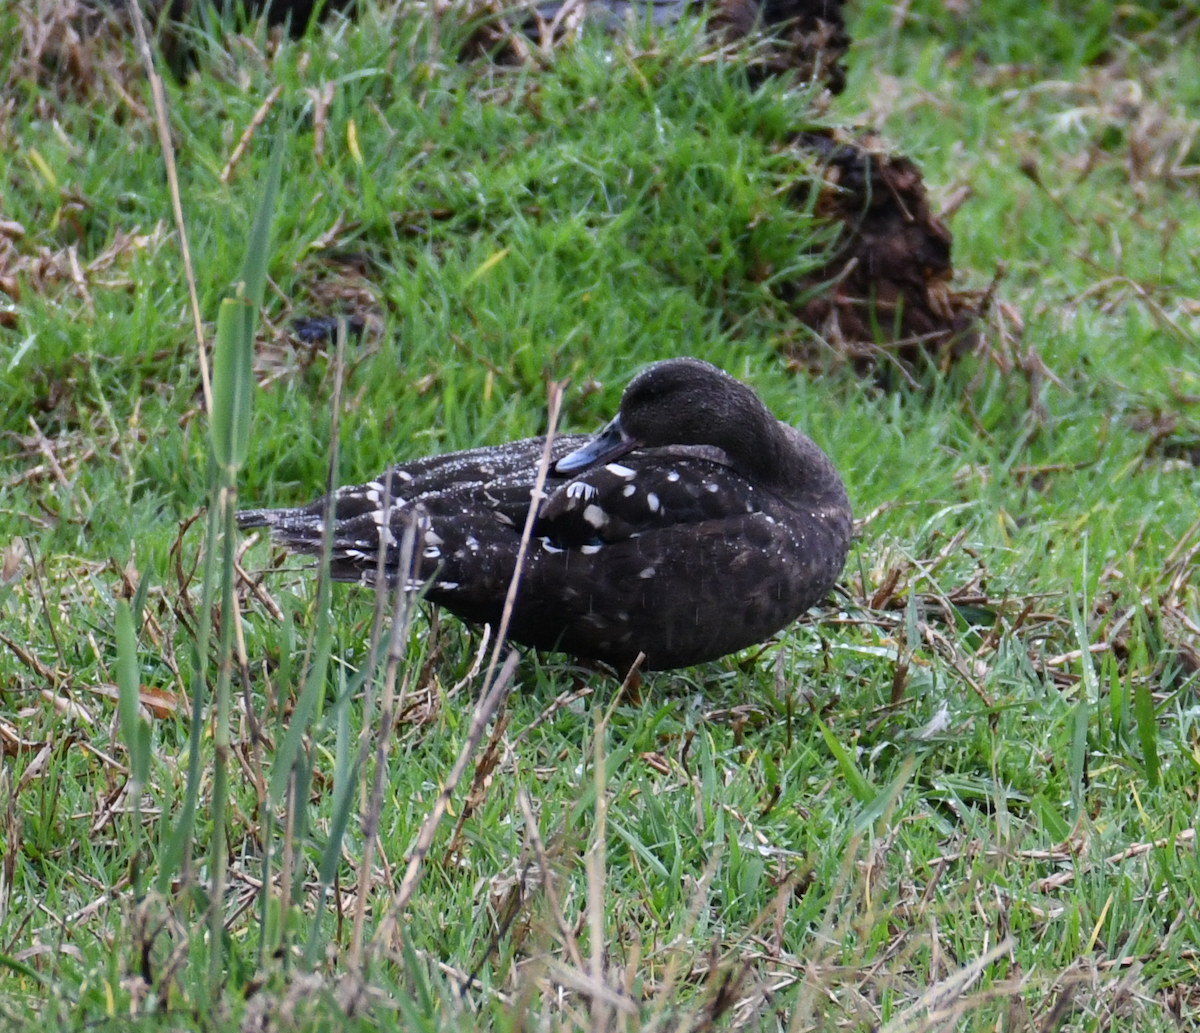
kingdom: Animalia
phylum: Chordata
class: Aves
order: Anseriformes
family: Anatidae
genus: Anas
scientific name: Anas sparsa
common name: African black duck
